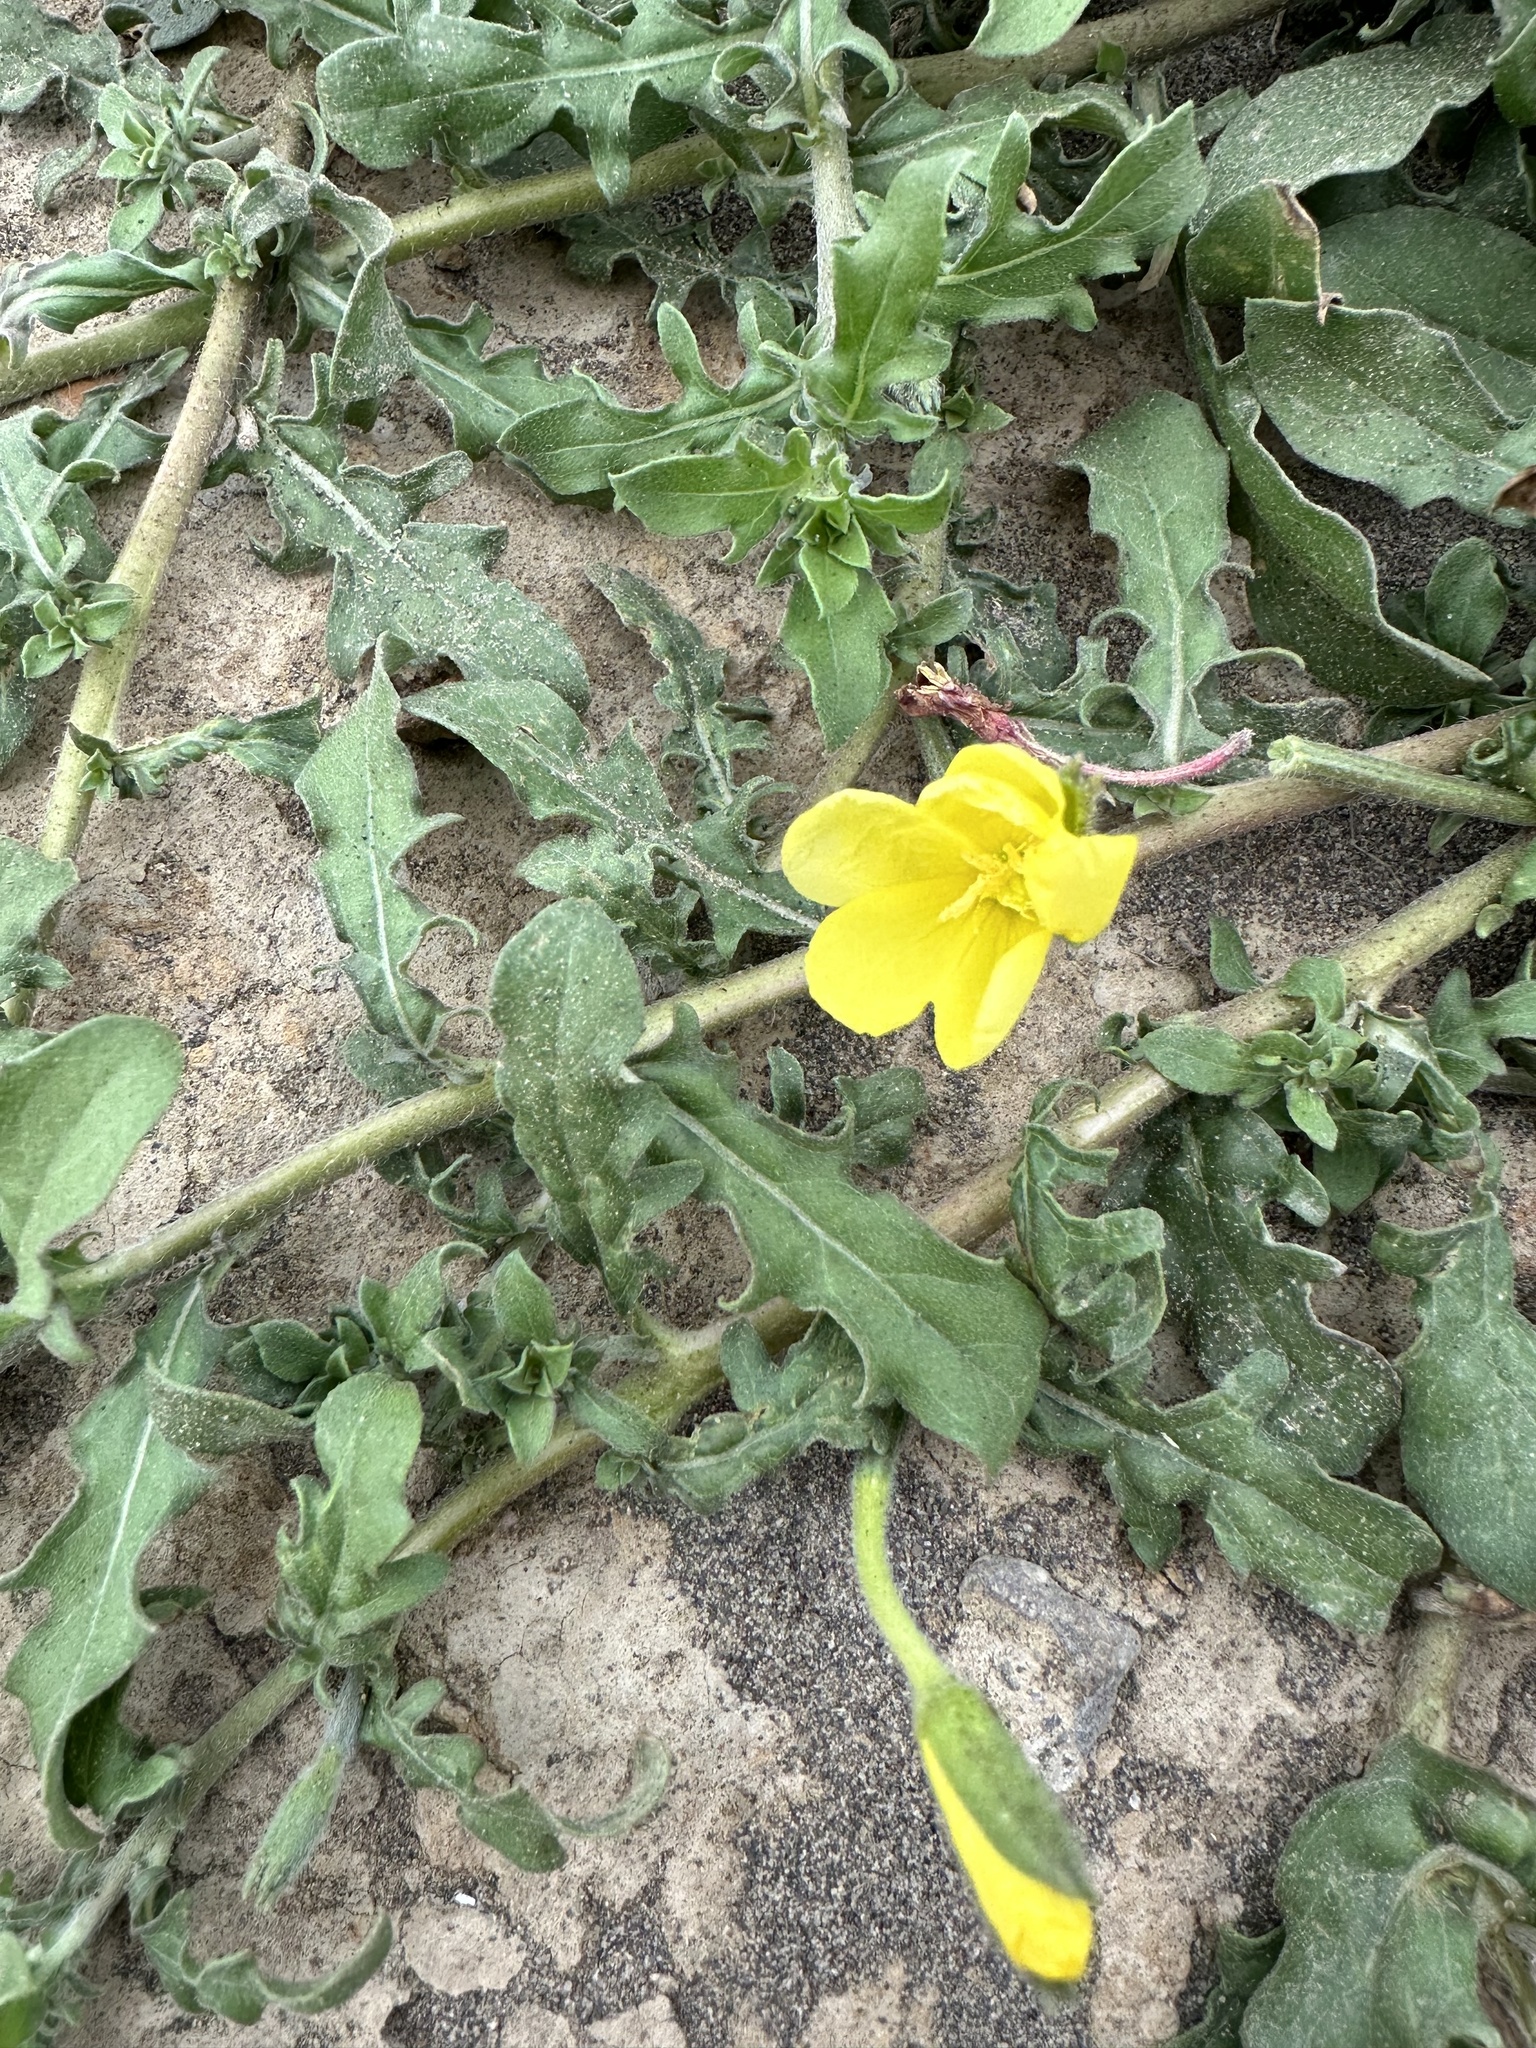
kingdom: Plantae
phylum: Tracheophyta
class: Magnoliopsida
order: Myrtales
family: Onagraceae
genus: Oenothera
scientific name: Oenothera laciniata
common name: Cut-leaved evening-primrose
